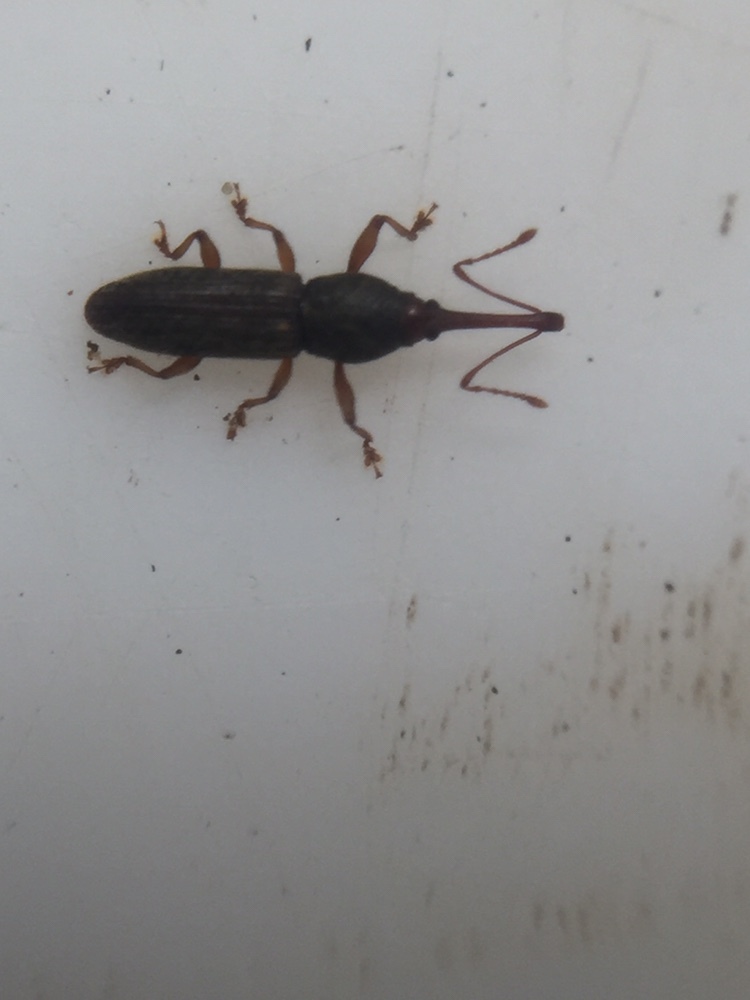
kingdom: Animalia
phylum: Arthropoda
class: Insecta
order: Coleoptera
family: Curculionidae
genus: Arecocryptus
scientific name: Arecocryptus bellus
